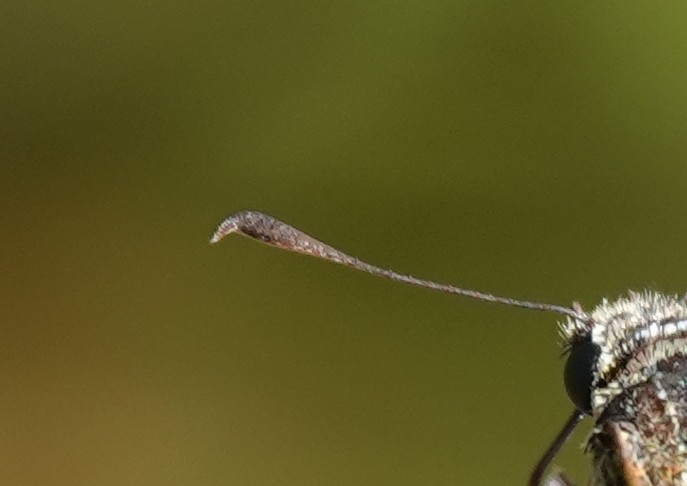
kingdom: Animalia
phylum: Arthropoda
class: Insecta
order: Lepidoptera
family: Hesperiidae
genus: Ochlodes
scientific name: Ochlodes venata
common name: Large skipper
